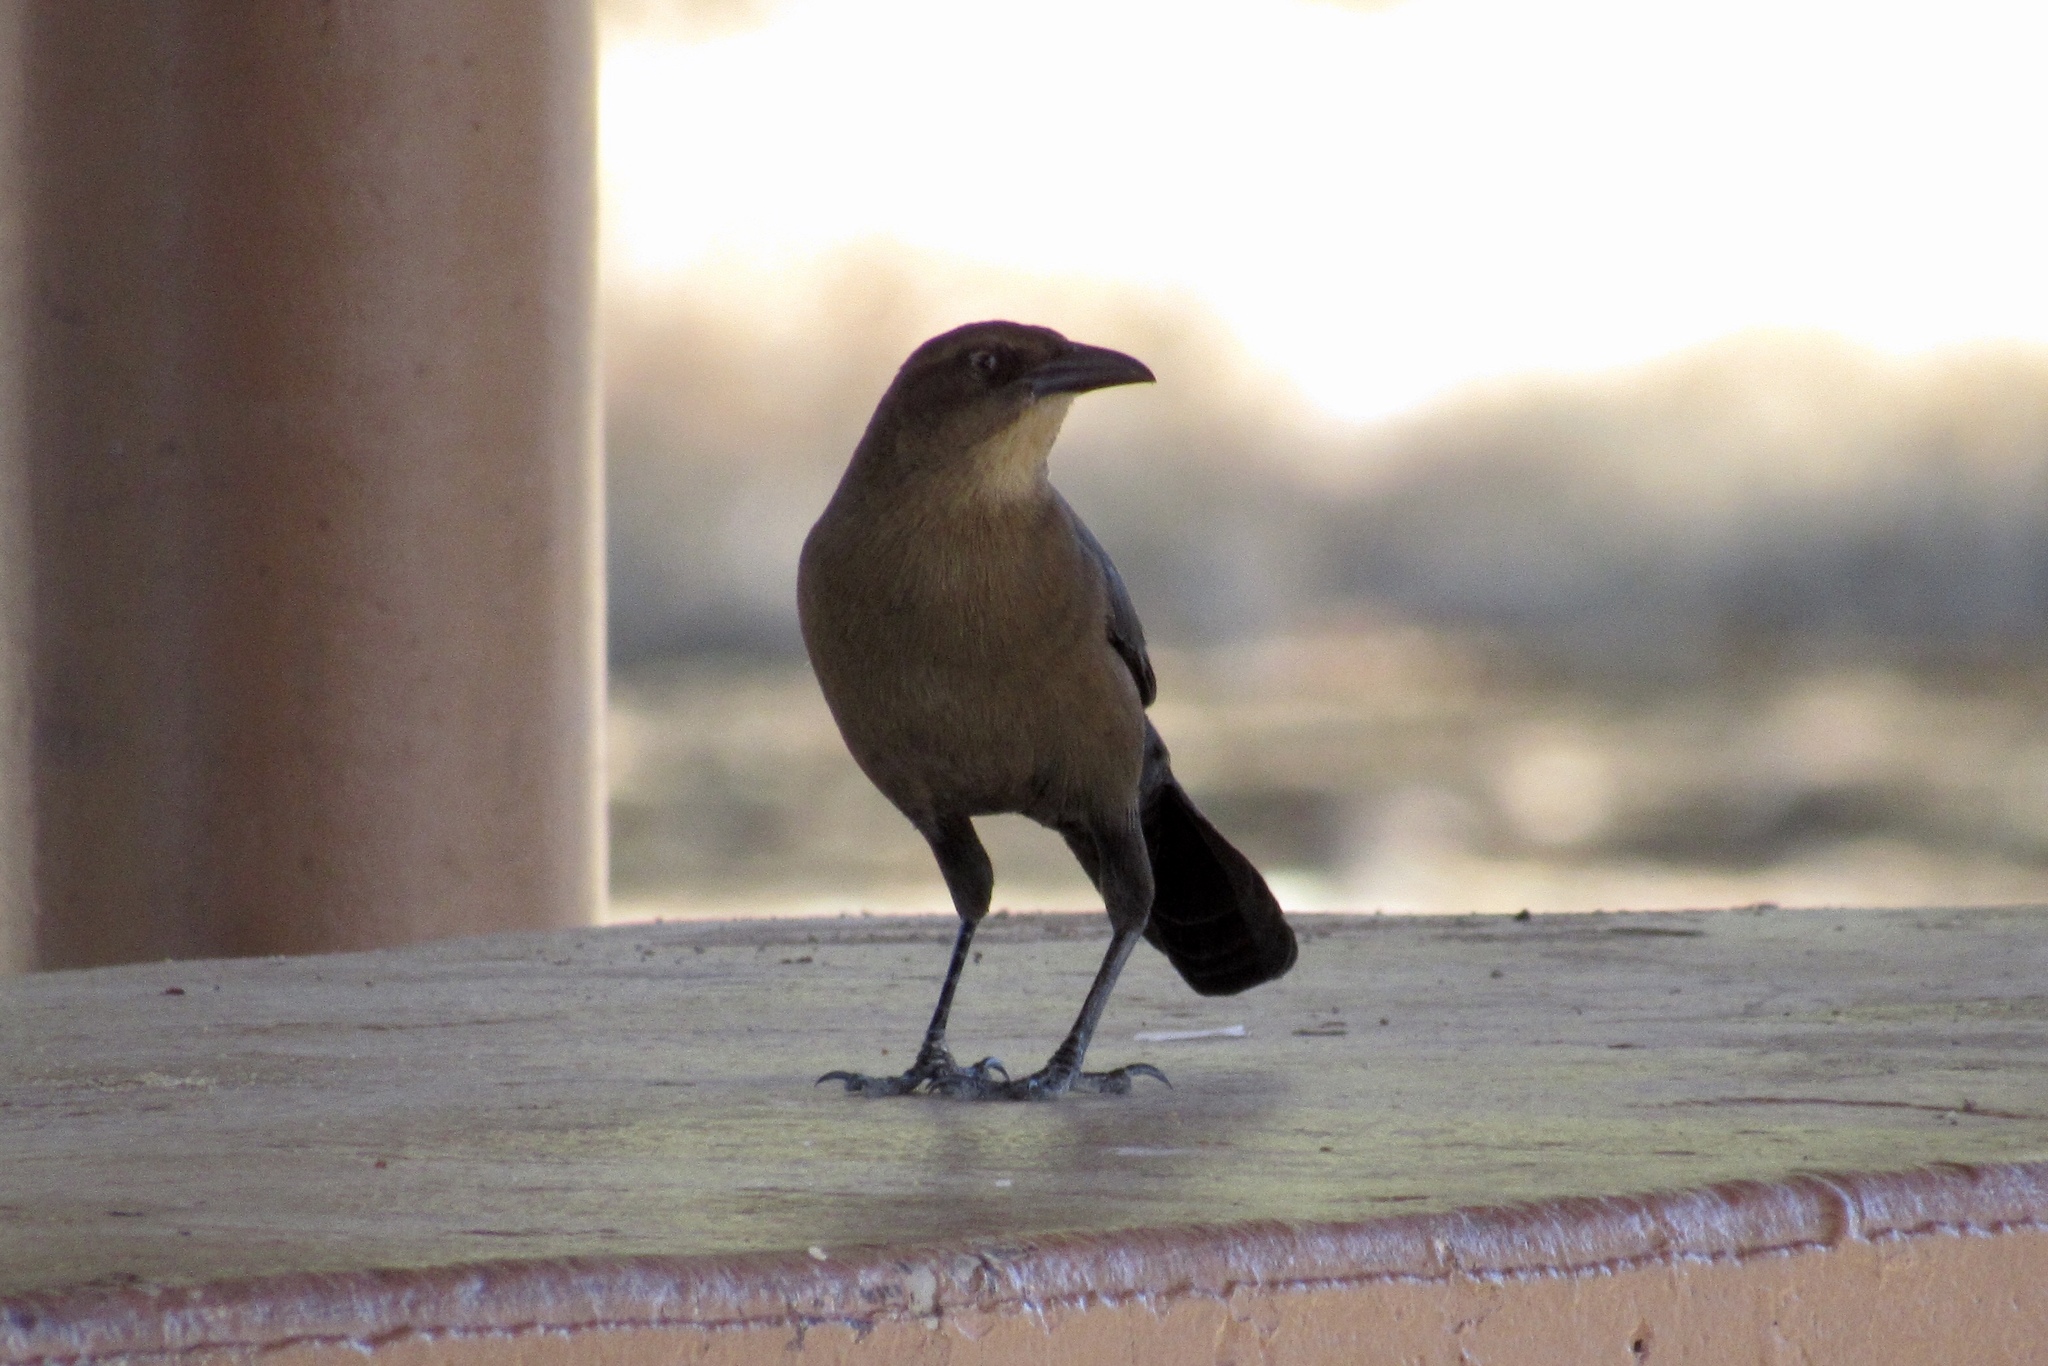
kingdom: Animalia
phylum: Chordata
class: Aves
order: Passeriformes
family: Icteridae
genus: Quiscalus
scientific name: Quiscalus mexicanus
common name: Great-tailed grackle
